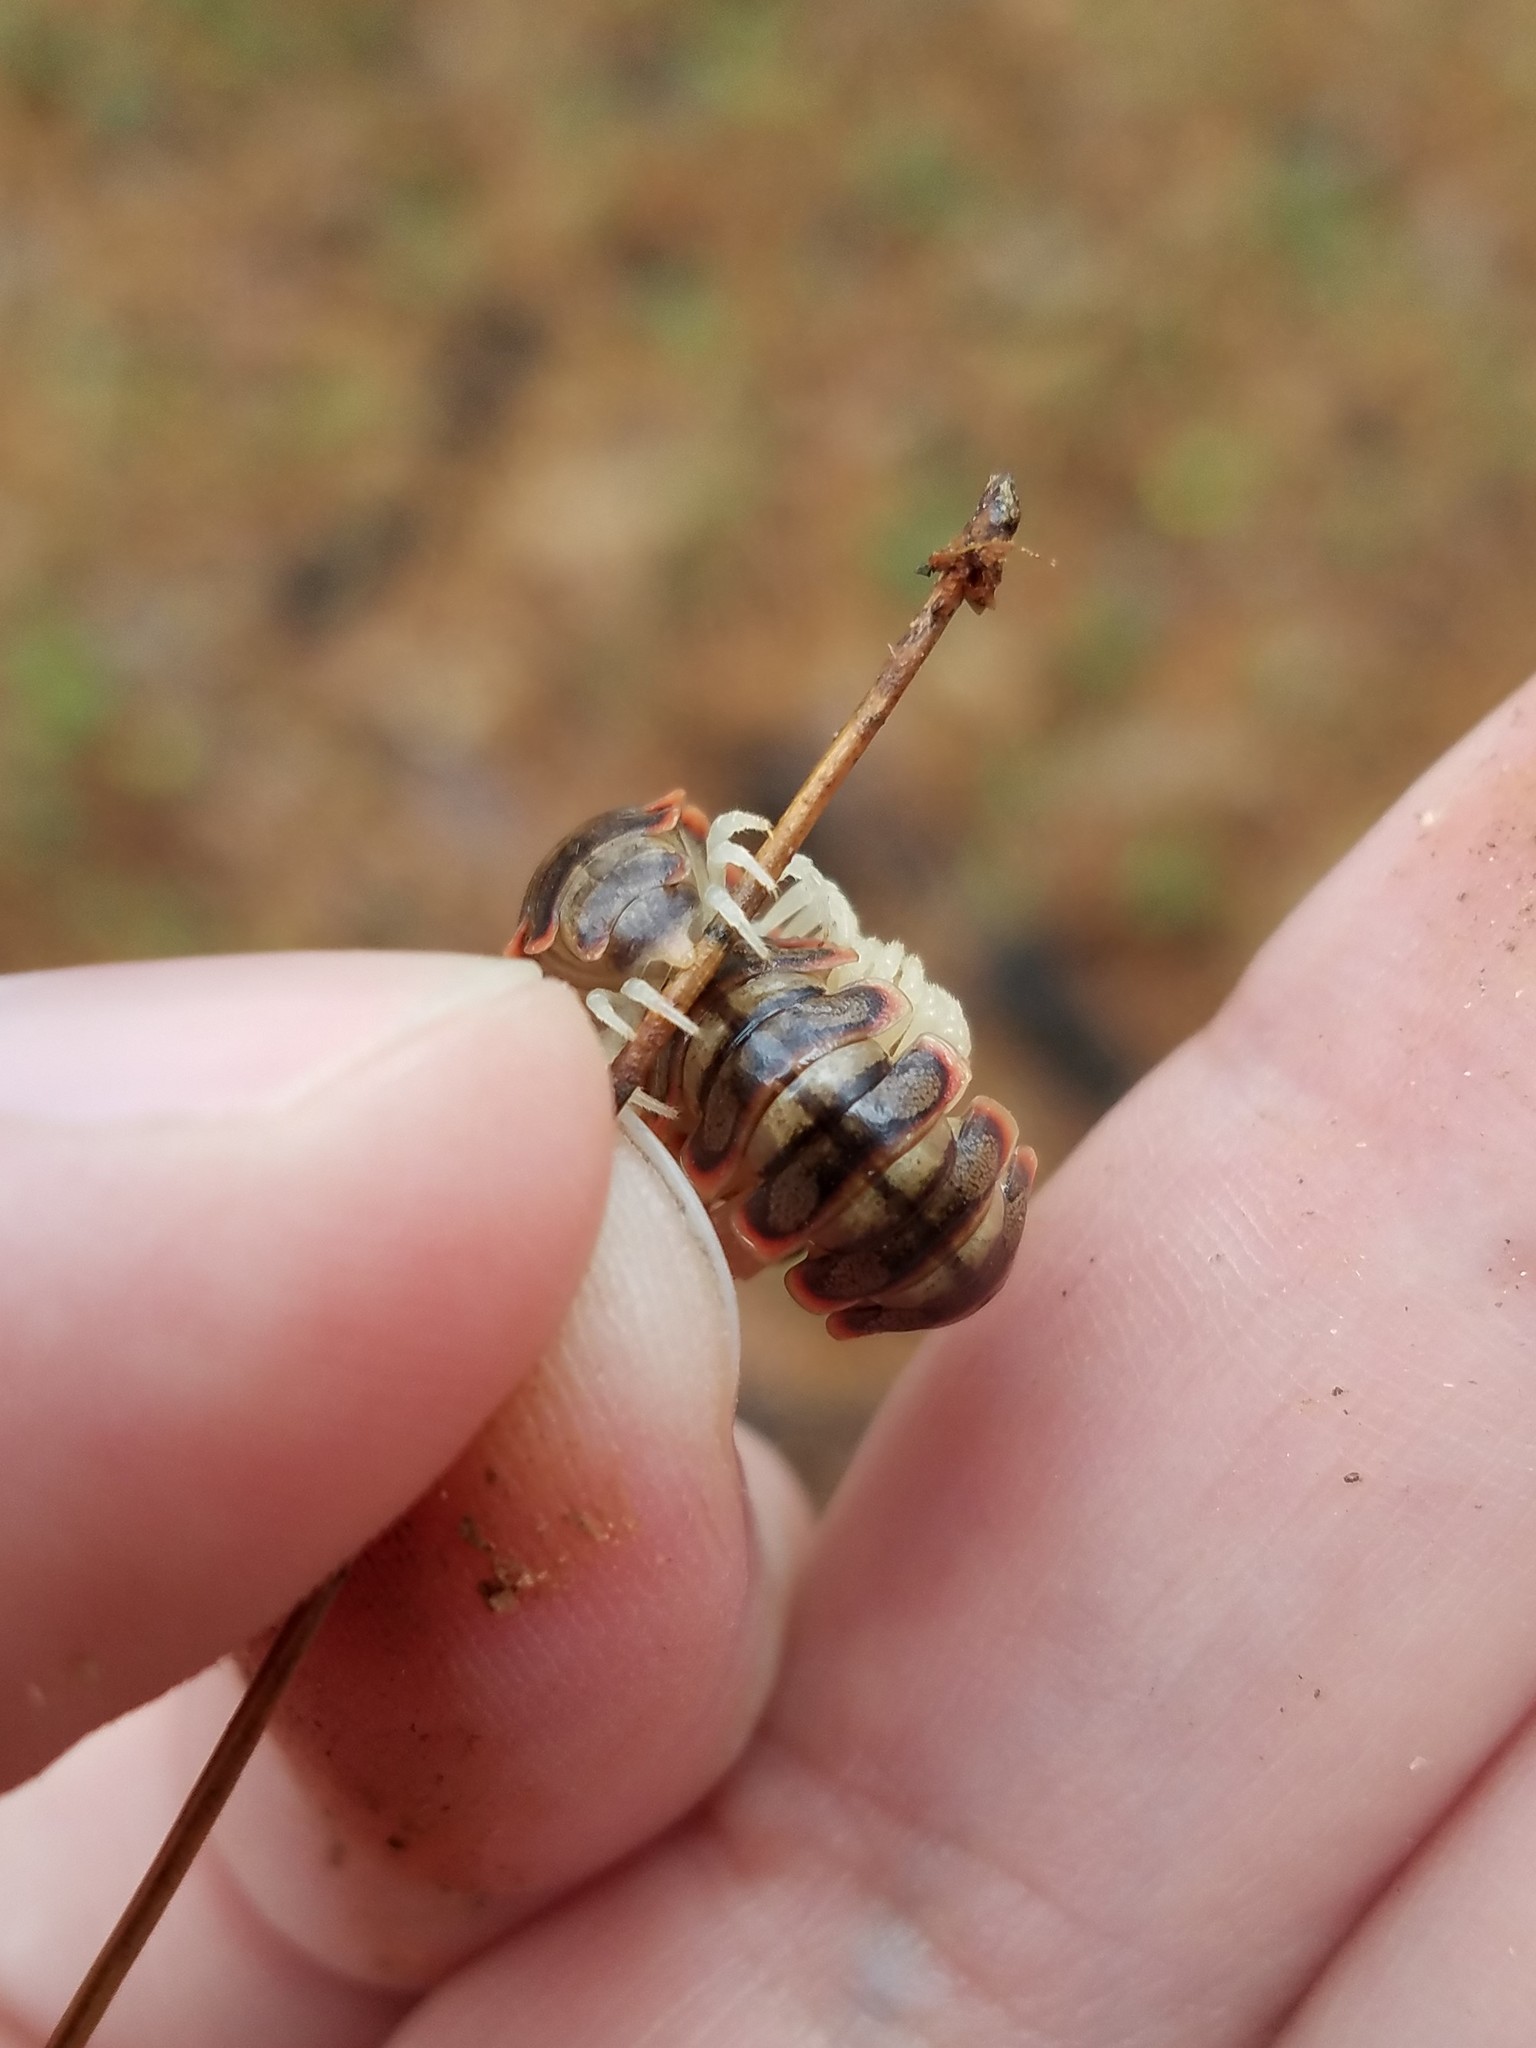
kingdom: Animalia
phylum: Arthropoda
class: Diplopoda
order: Polydesmida
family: Xystodesmidae
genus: Dicellarius
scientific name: Dicellarius atlanta
